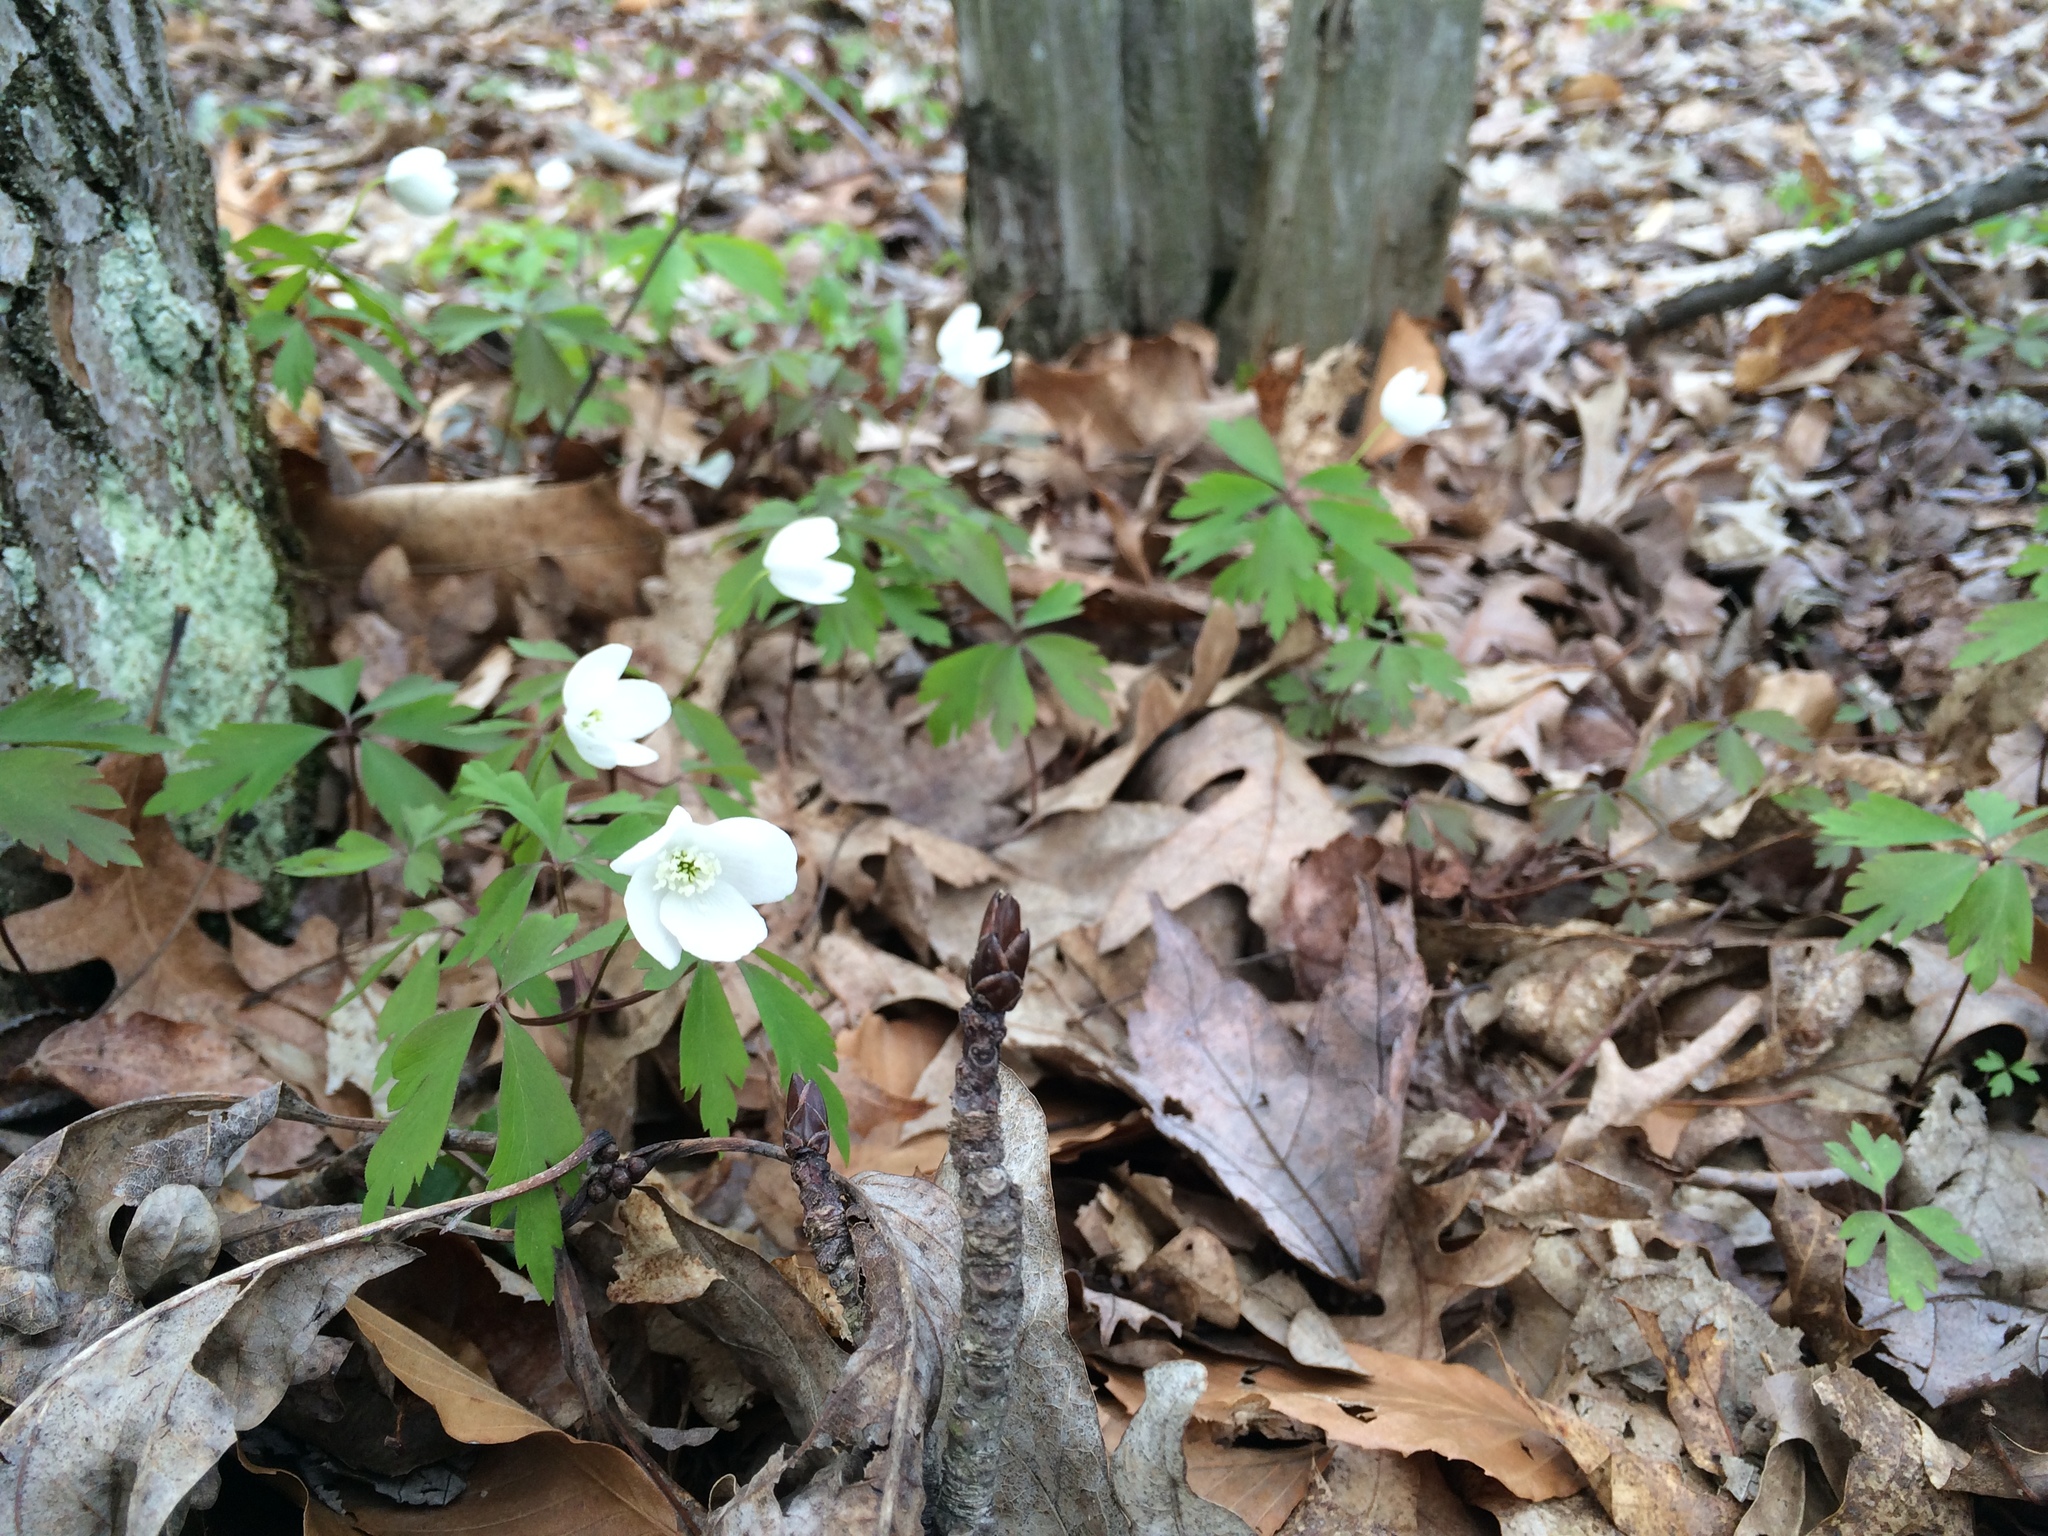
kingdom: Plantae
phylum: Tracheophyta
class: Magnoliopsida
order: Ranunculales
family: Ranunculaceae
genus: Anemone
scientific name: Anemone quinquefolia
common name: Wood anemone
